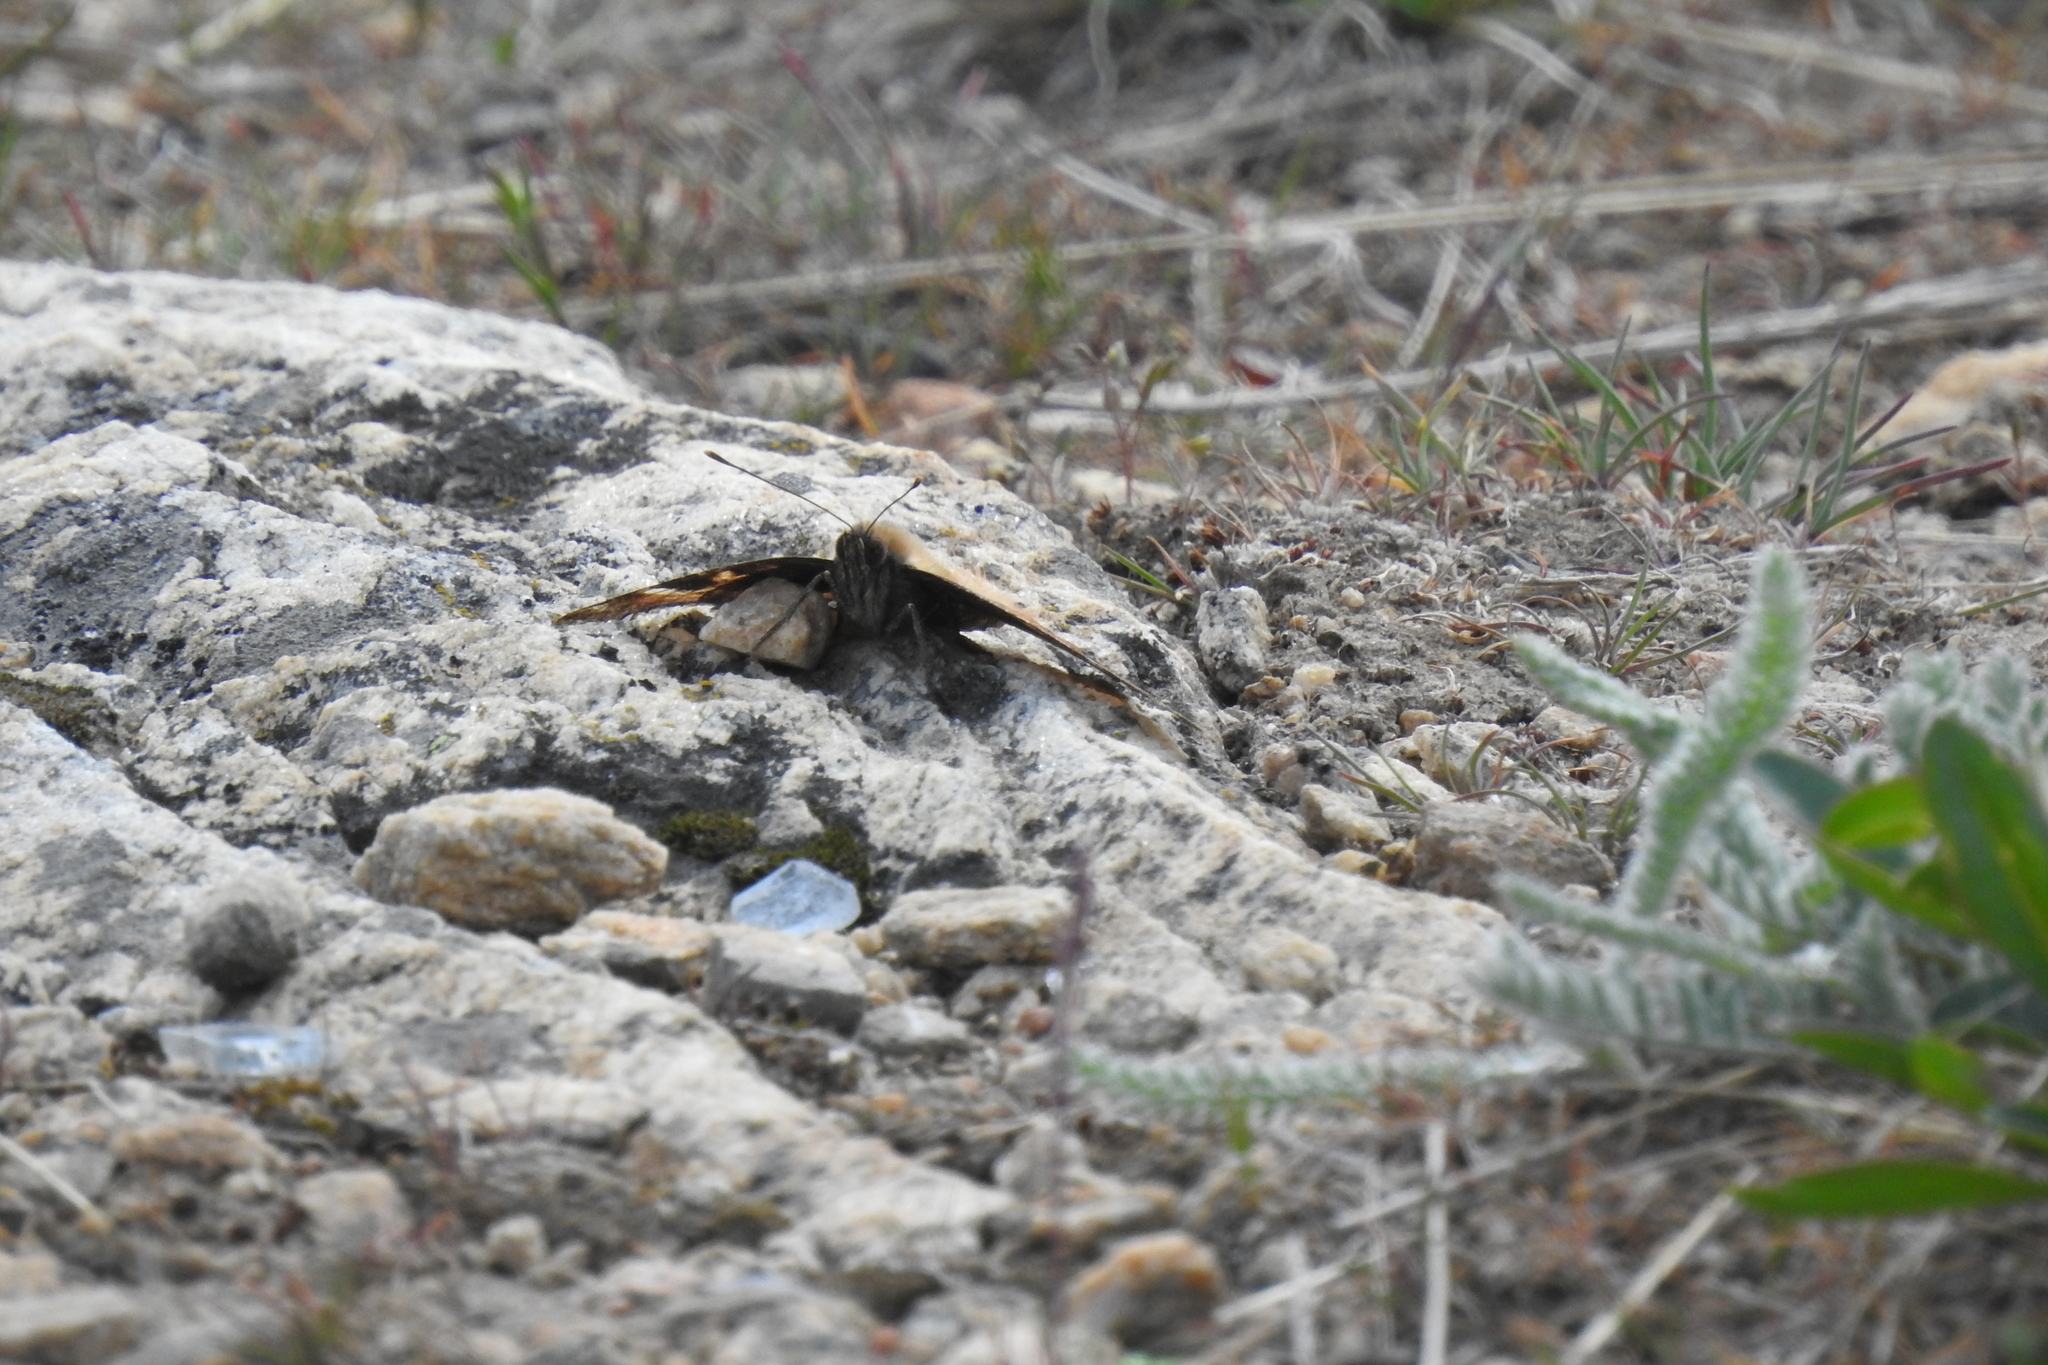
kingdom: Animalia
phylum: Arthropoda
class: Insecta
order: Lepidoptera
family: Nymphalidae
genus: Nymphalis
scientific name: Nymphalis californica
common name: California tortoiseshell
